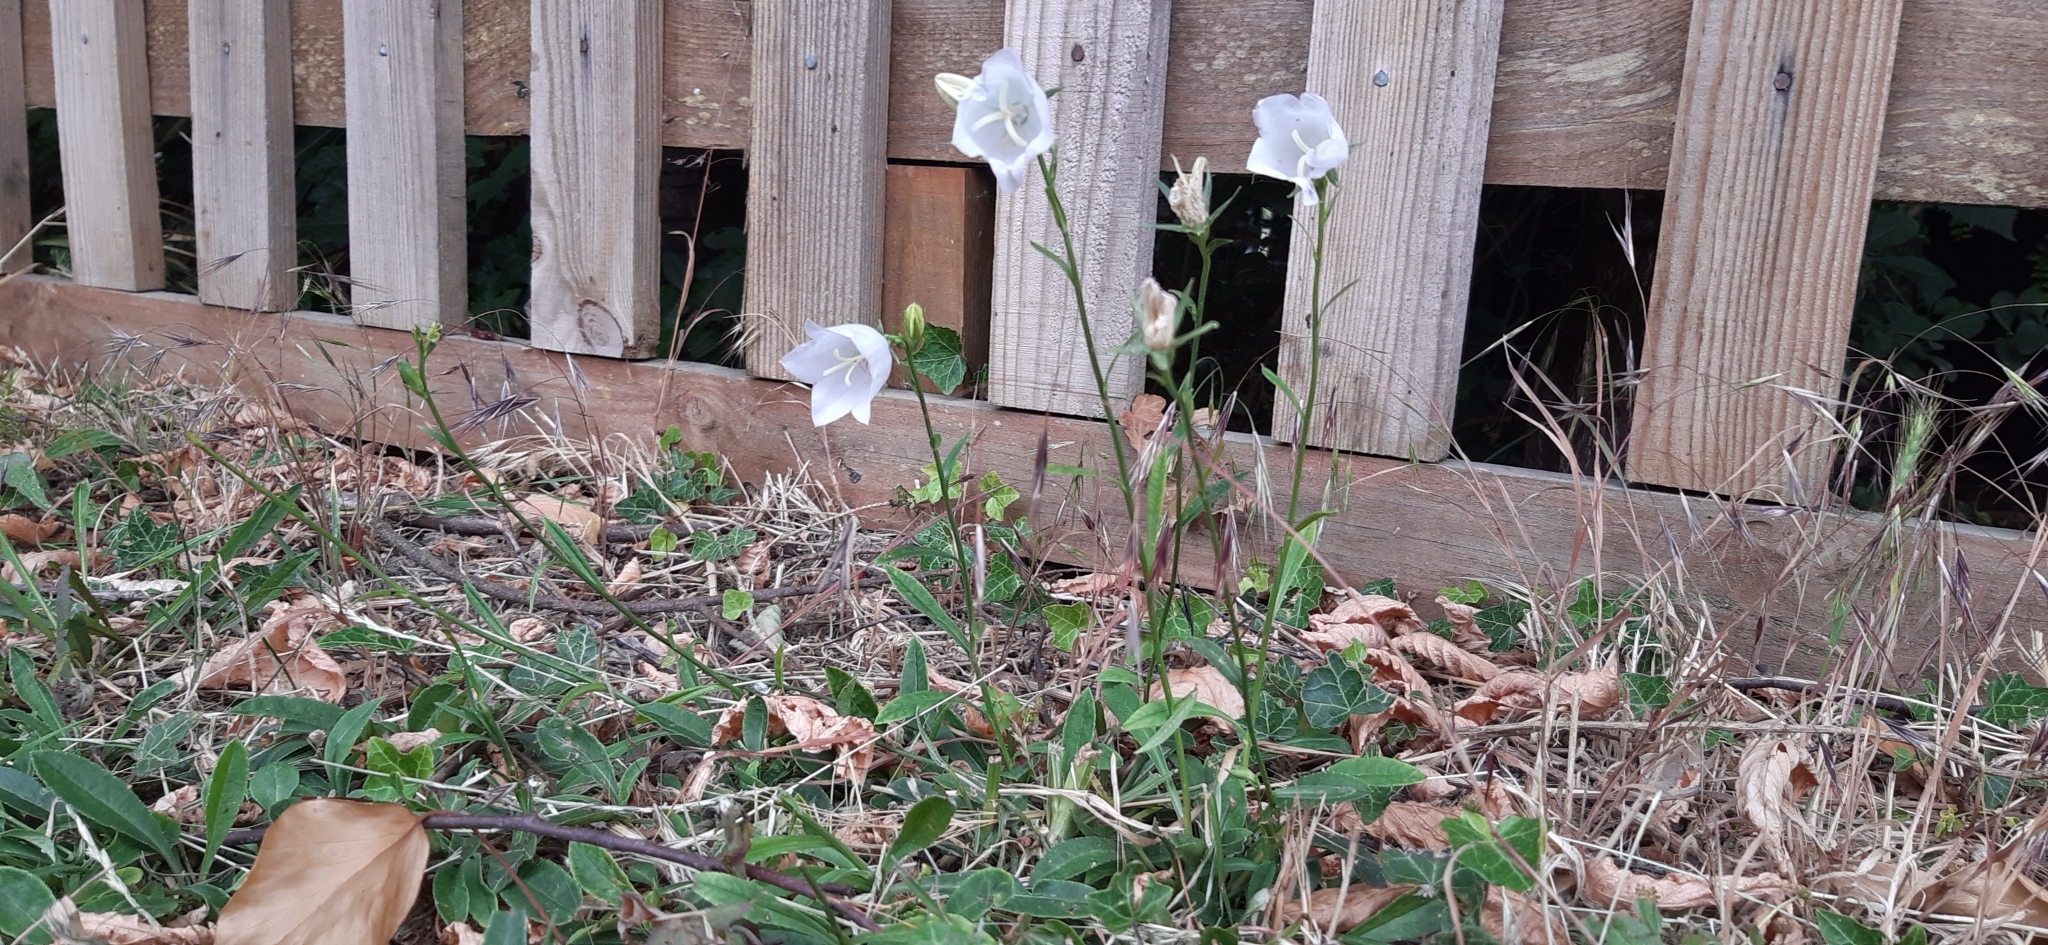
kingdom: Plantae
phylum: Tracheophyta
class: Magnoliopsida
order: Asterales
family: Campanulaceae
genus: Campanula
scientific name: Campanula persicifolia
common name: Peach-leaved bellflower
